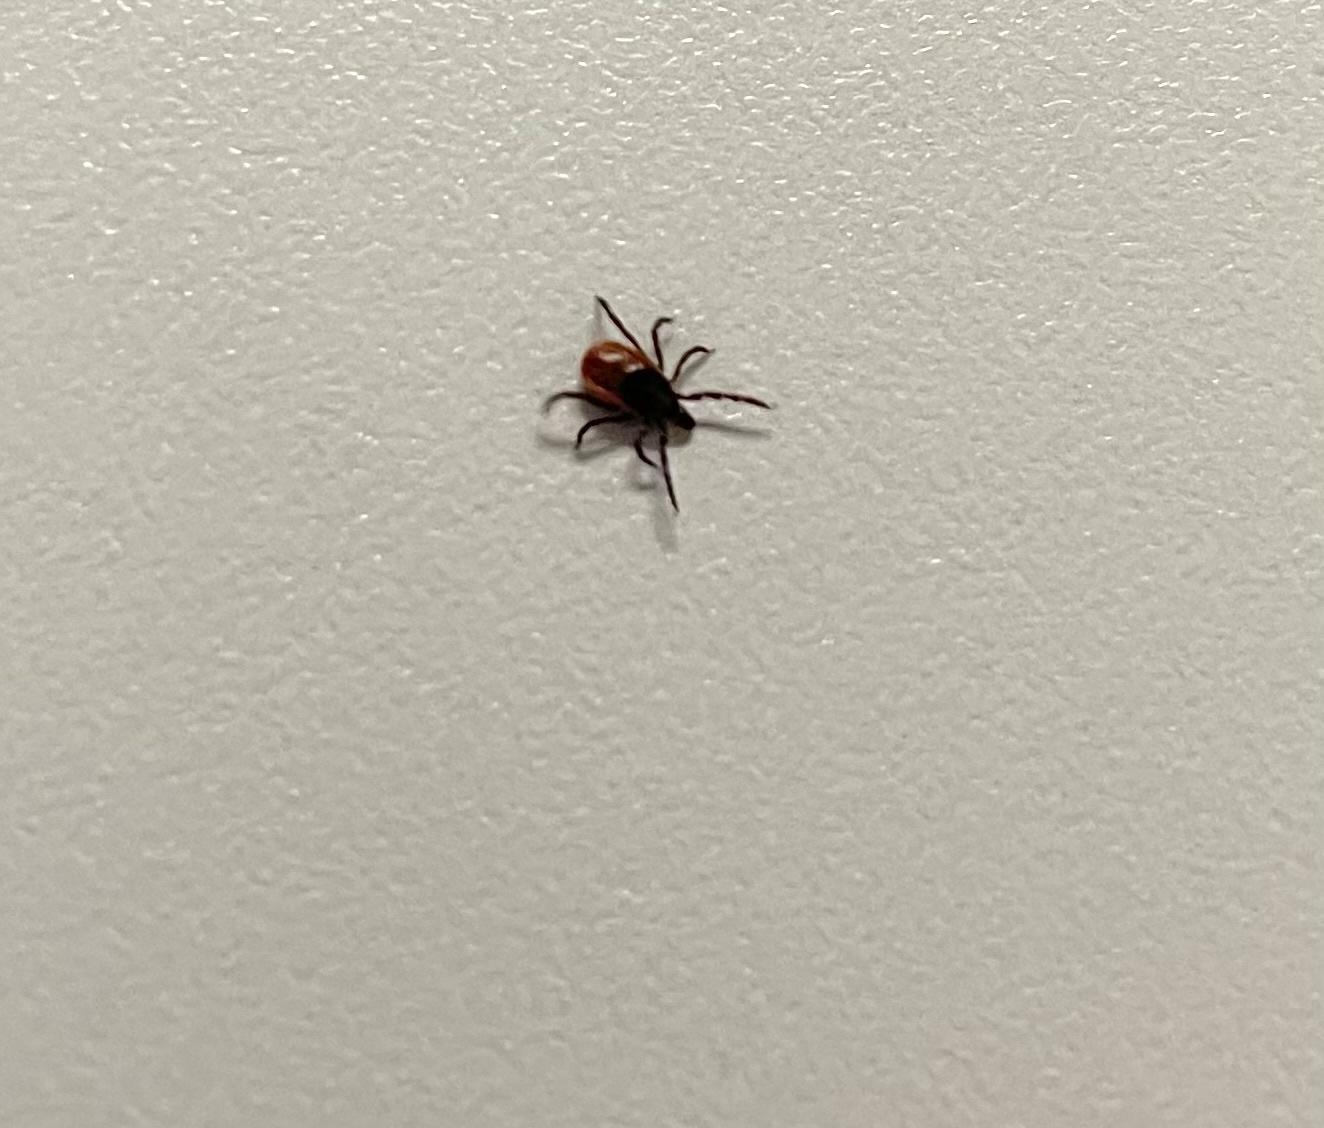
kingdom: Animalia
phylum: Arthropoda
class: Arachnida
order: Ixodida
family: Ixodidae
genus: Ixodes
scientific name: Ixodes scapularis
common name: Black legged tick
